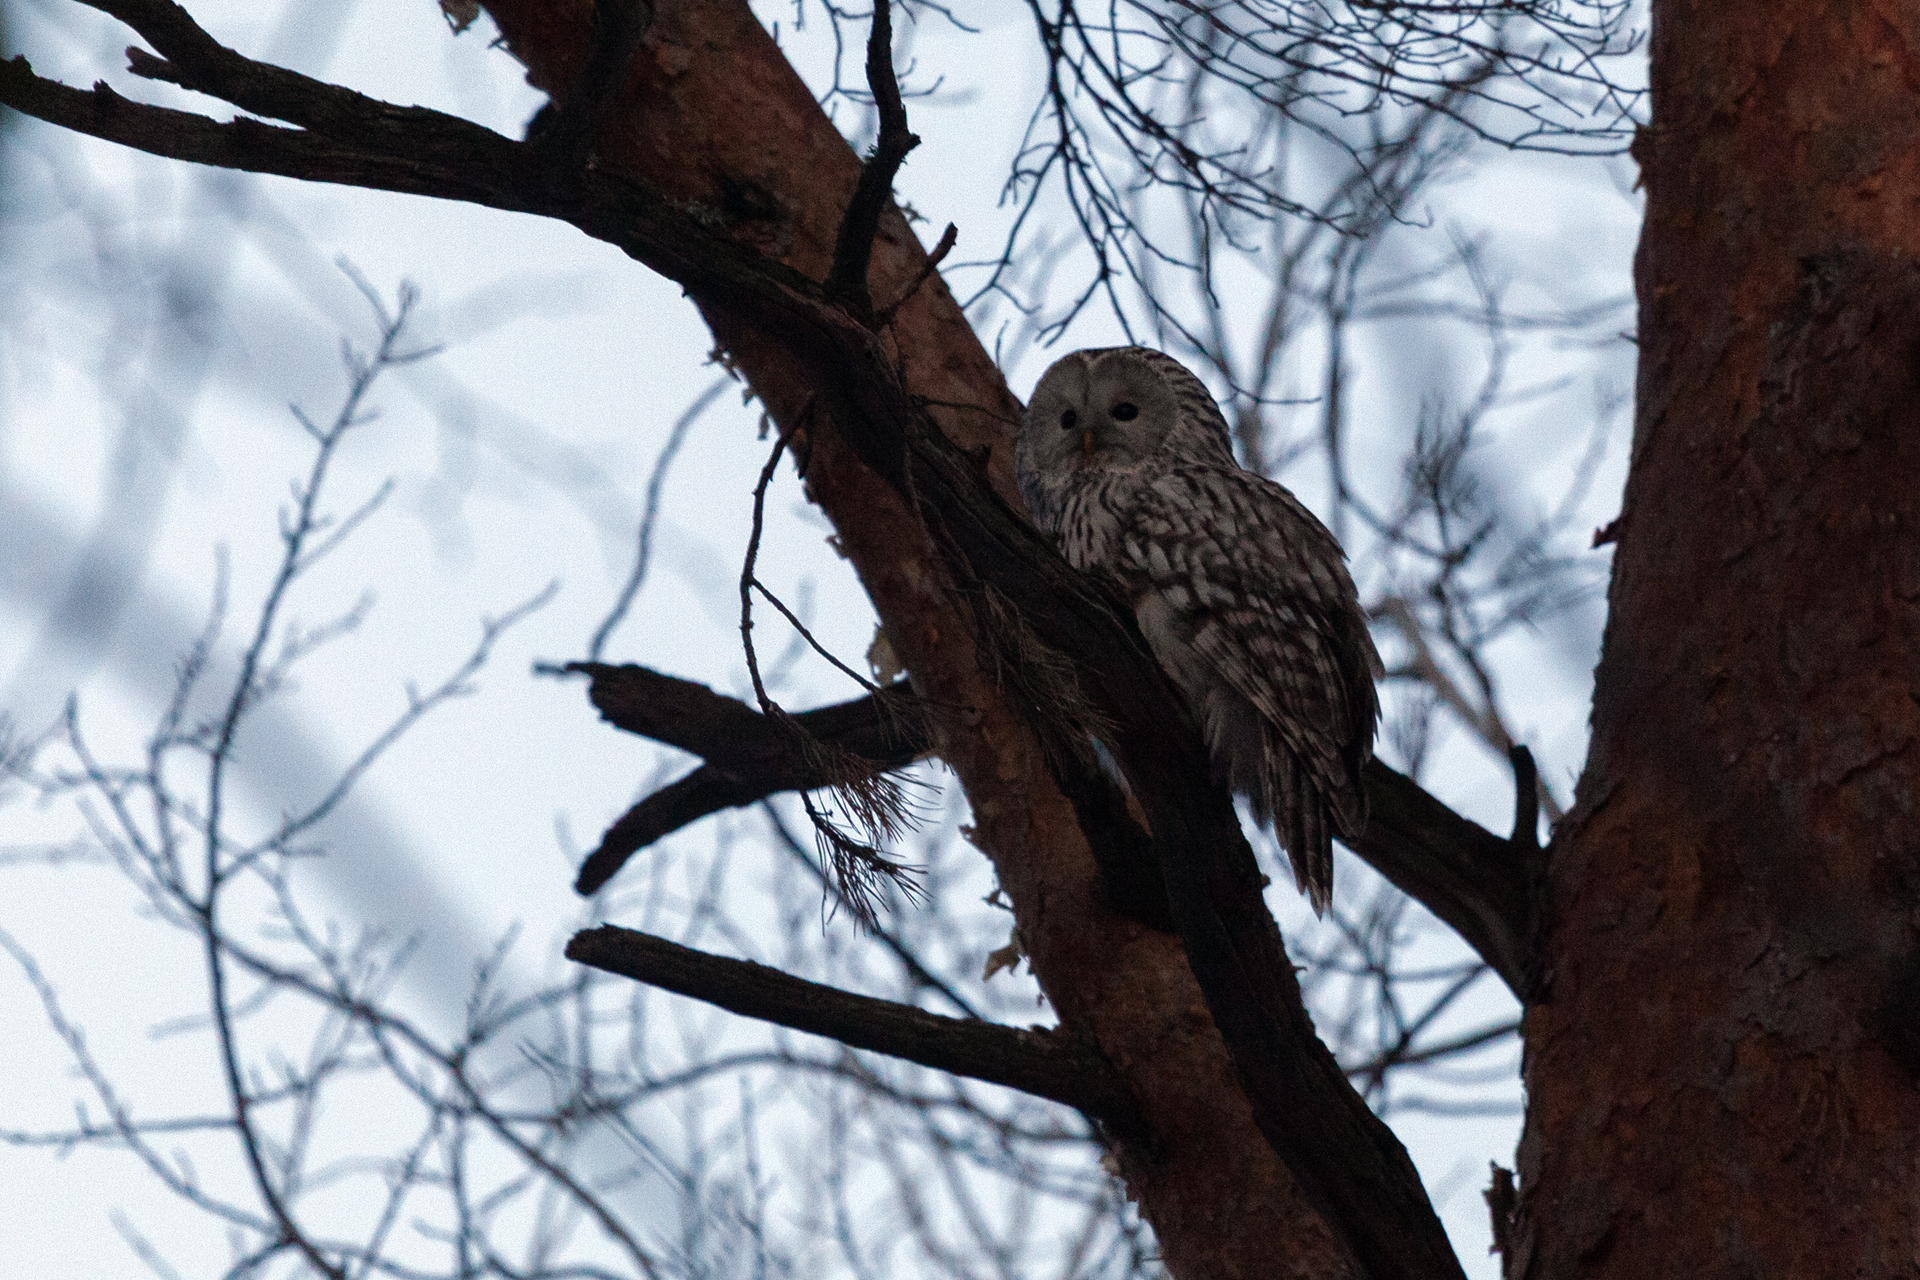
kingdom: Animalia
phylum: Chordata
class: Aves
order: Strigiformes
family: Strigidae
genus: Strix
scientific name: Strix uralensis
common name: Ural owl
